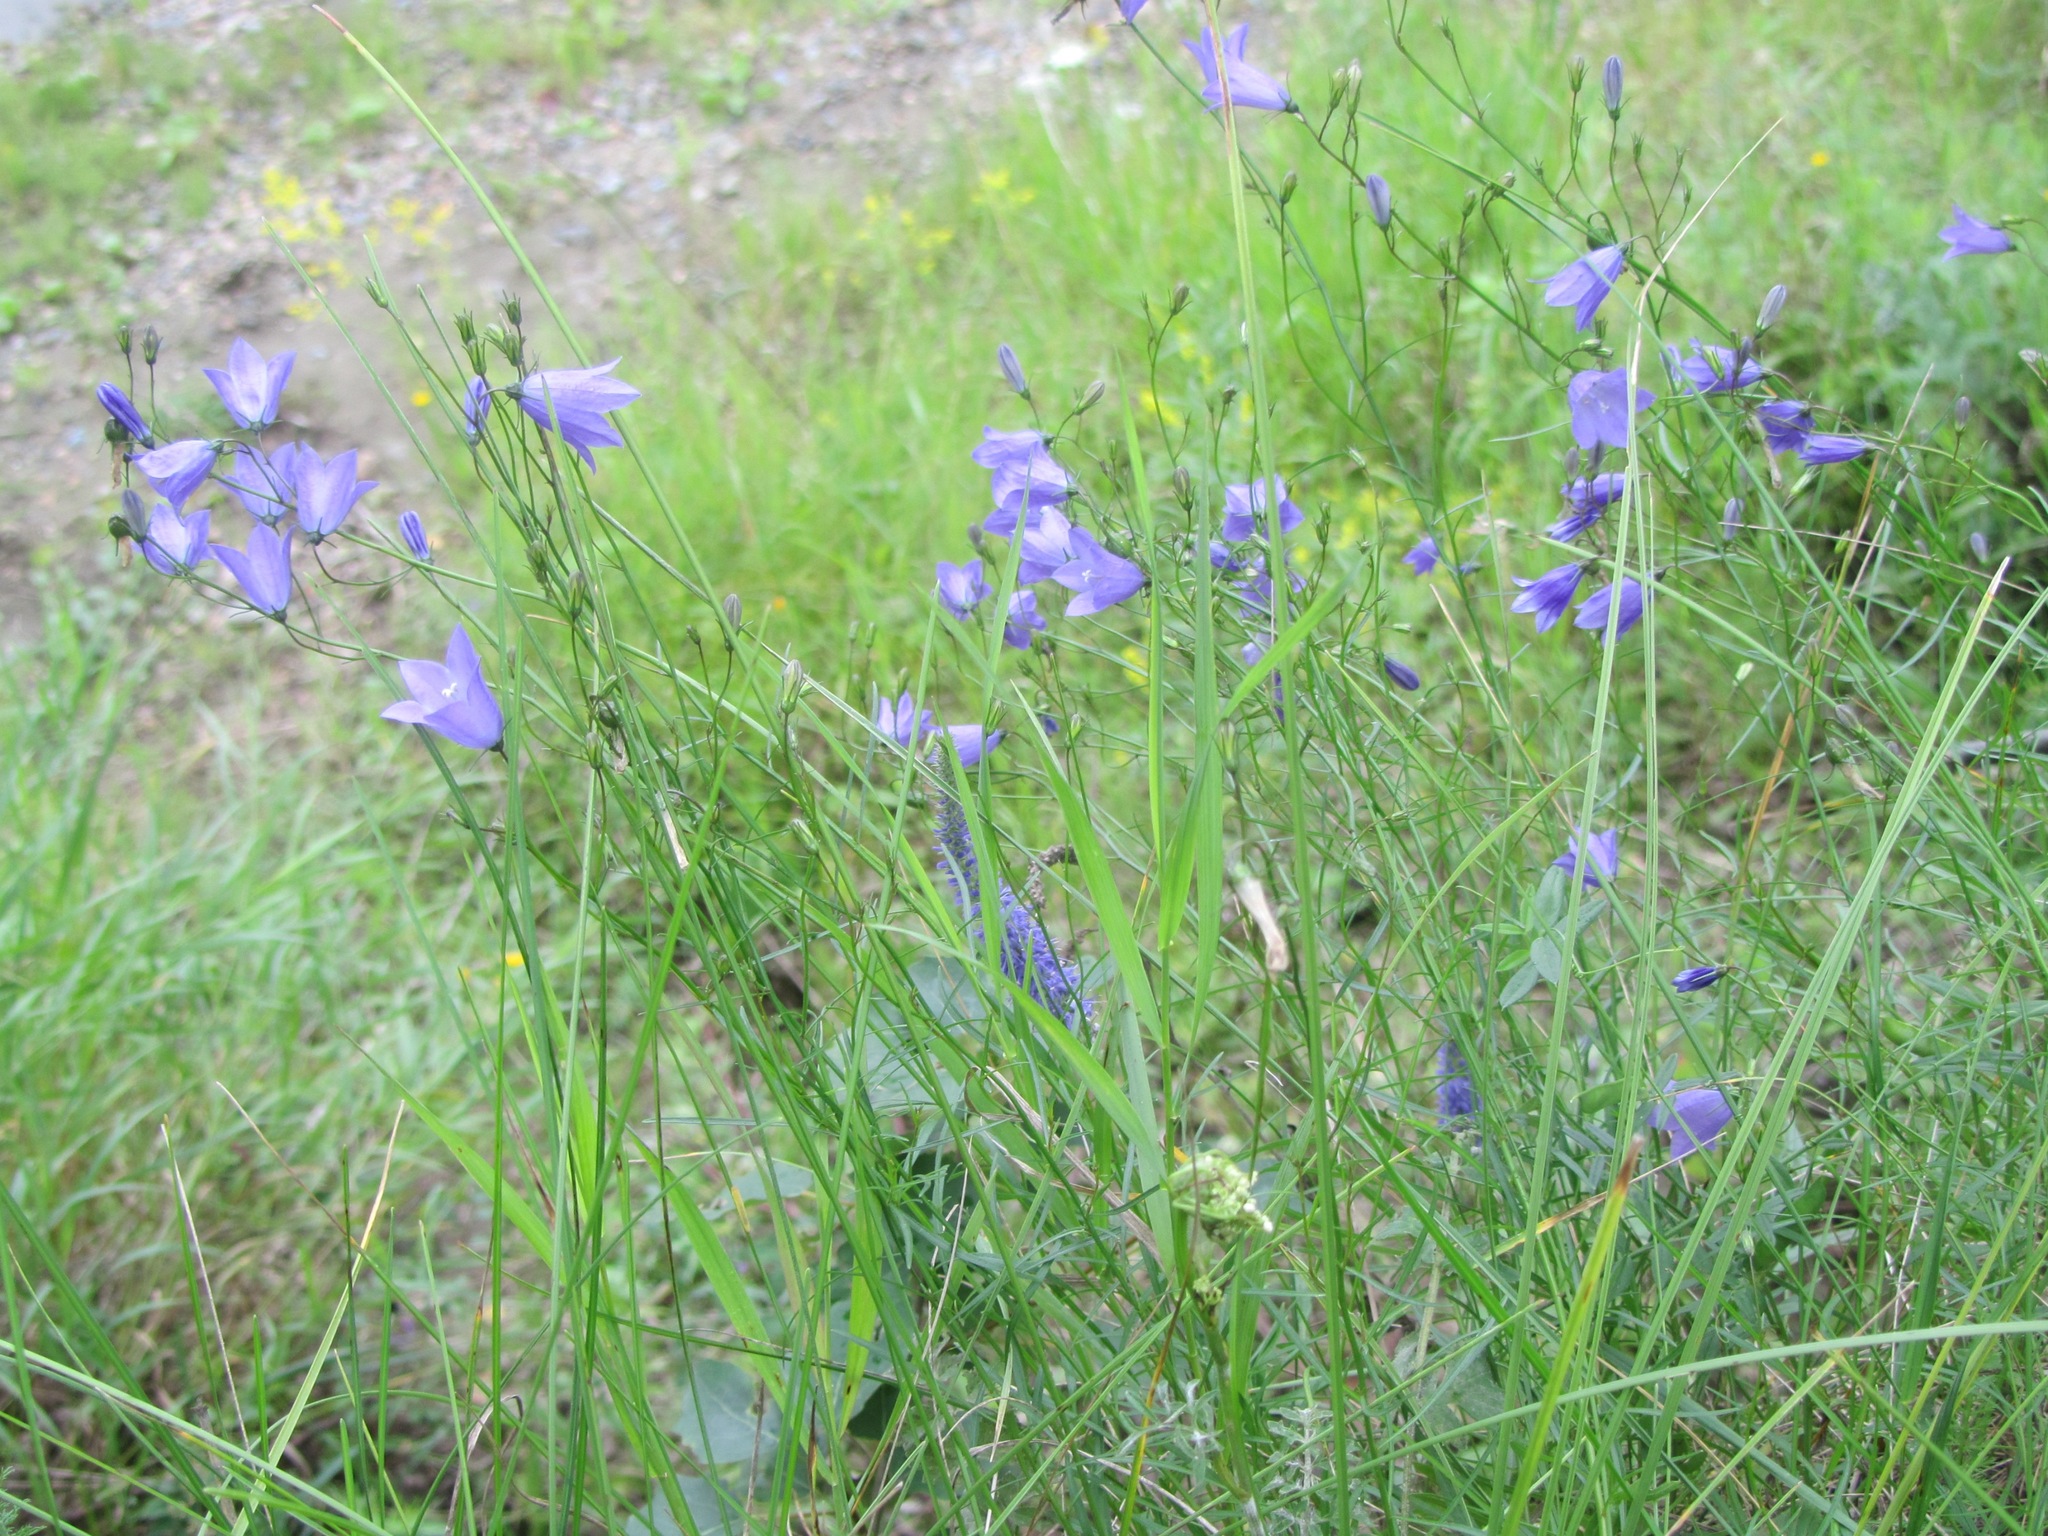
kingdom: Plantae
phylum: Tracheophyta
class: Magnoliopsida
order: Asterales
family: Campanulaceae
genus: Campanula
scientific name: Campanula rotundifolia
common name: Harebell
